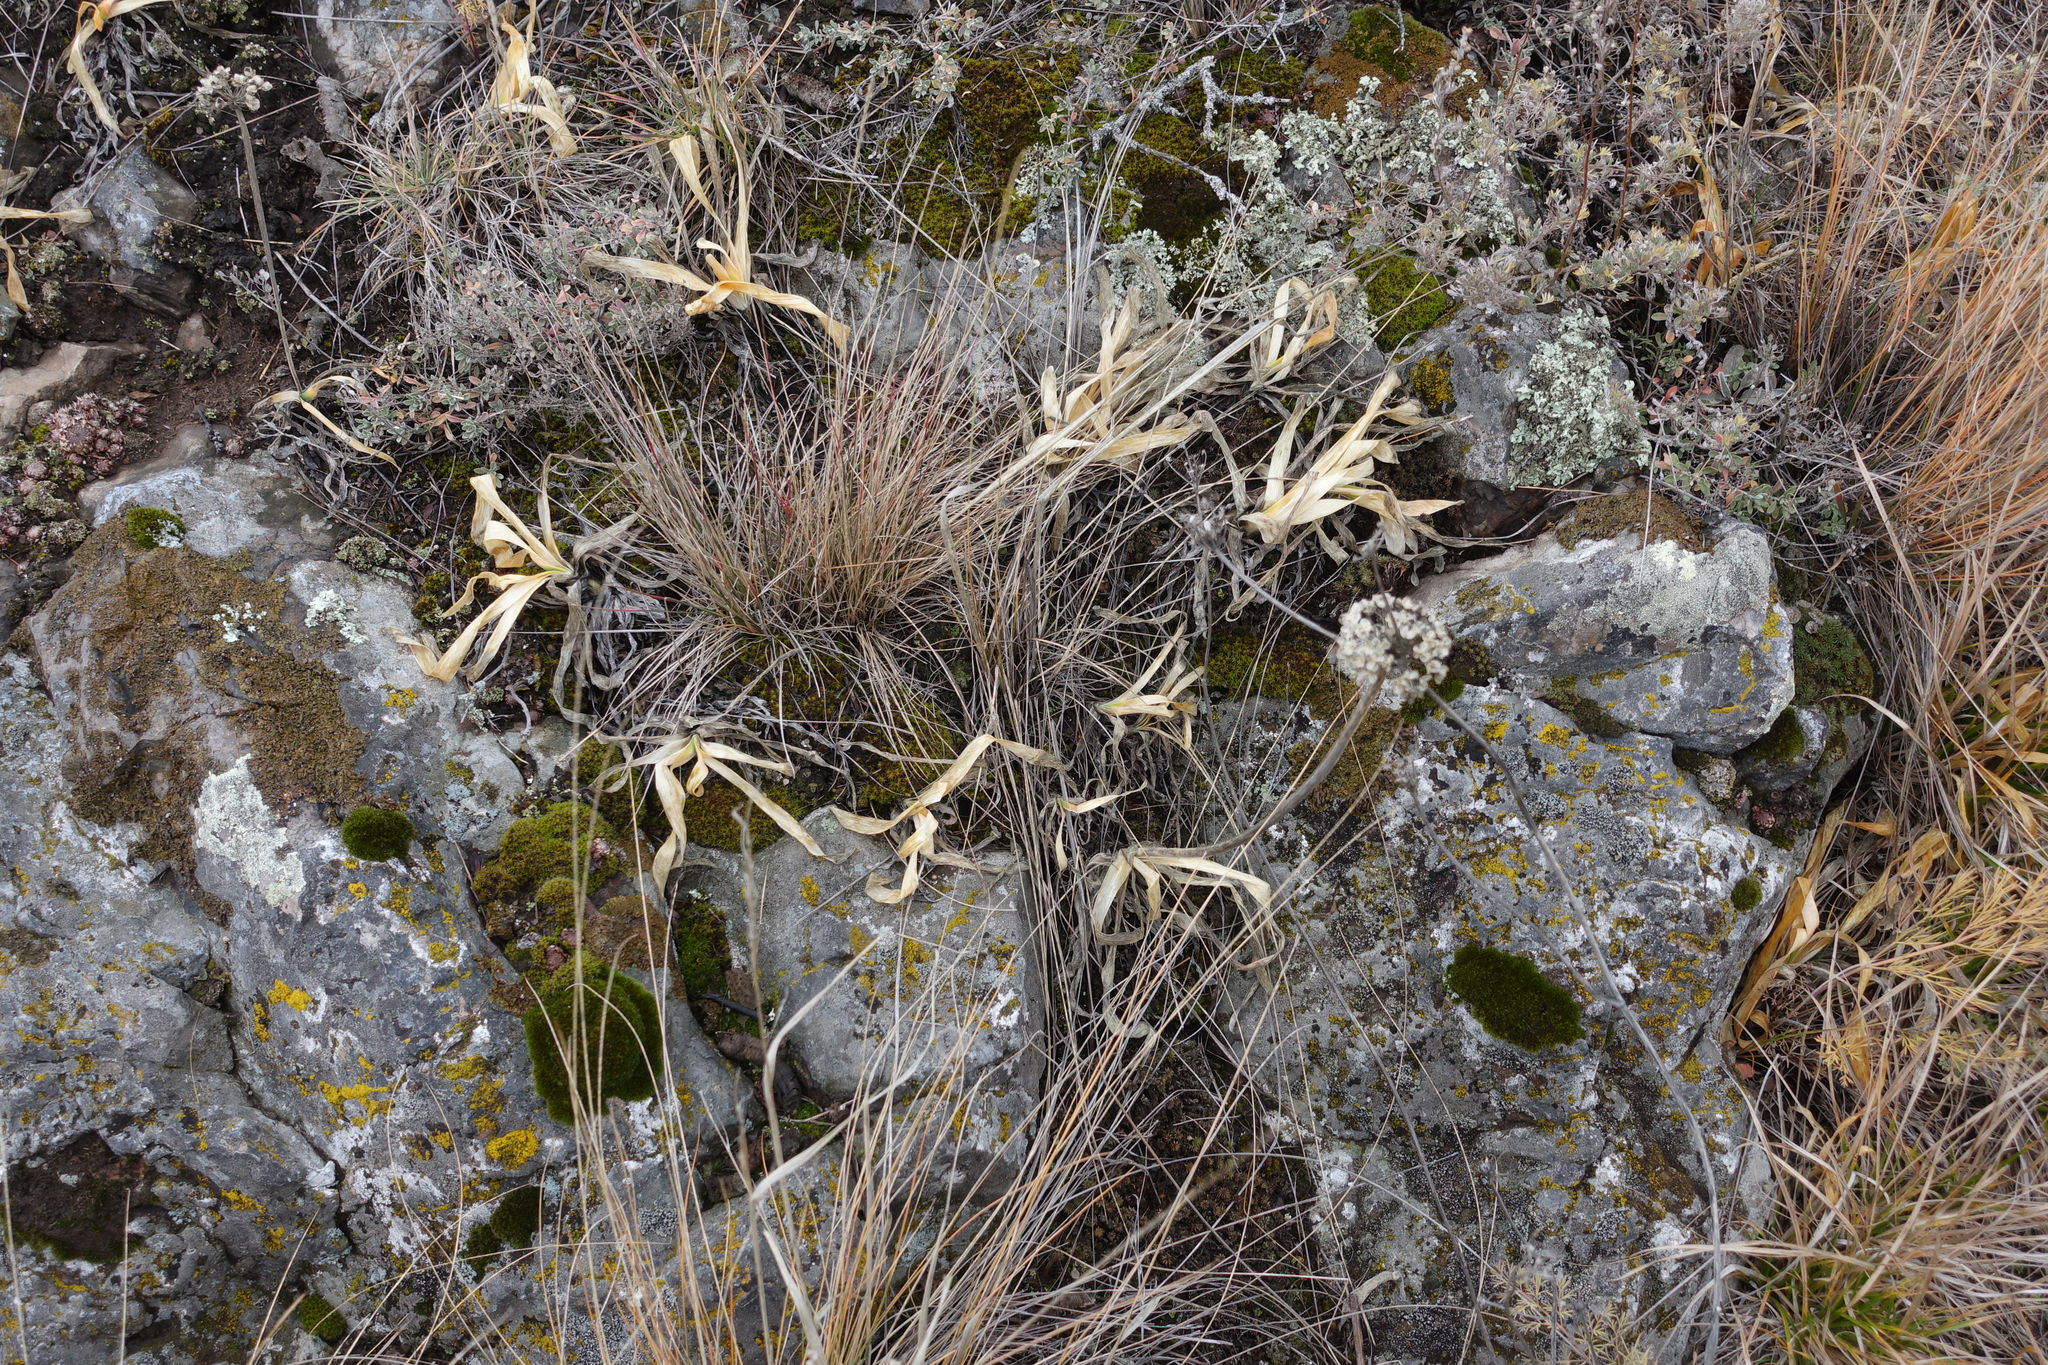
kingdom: Plantae
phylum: Tracheophyta
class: Liliopsida
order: Asparagales
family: Amaryllidaceae
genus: Allium
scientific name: Allium nutans
